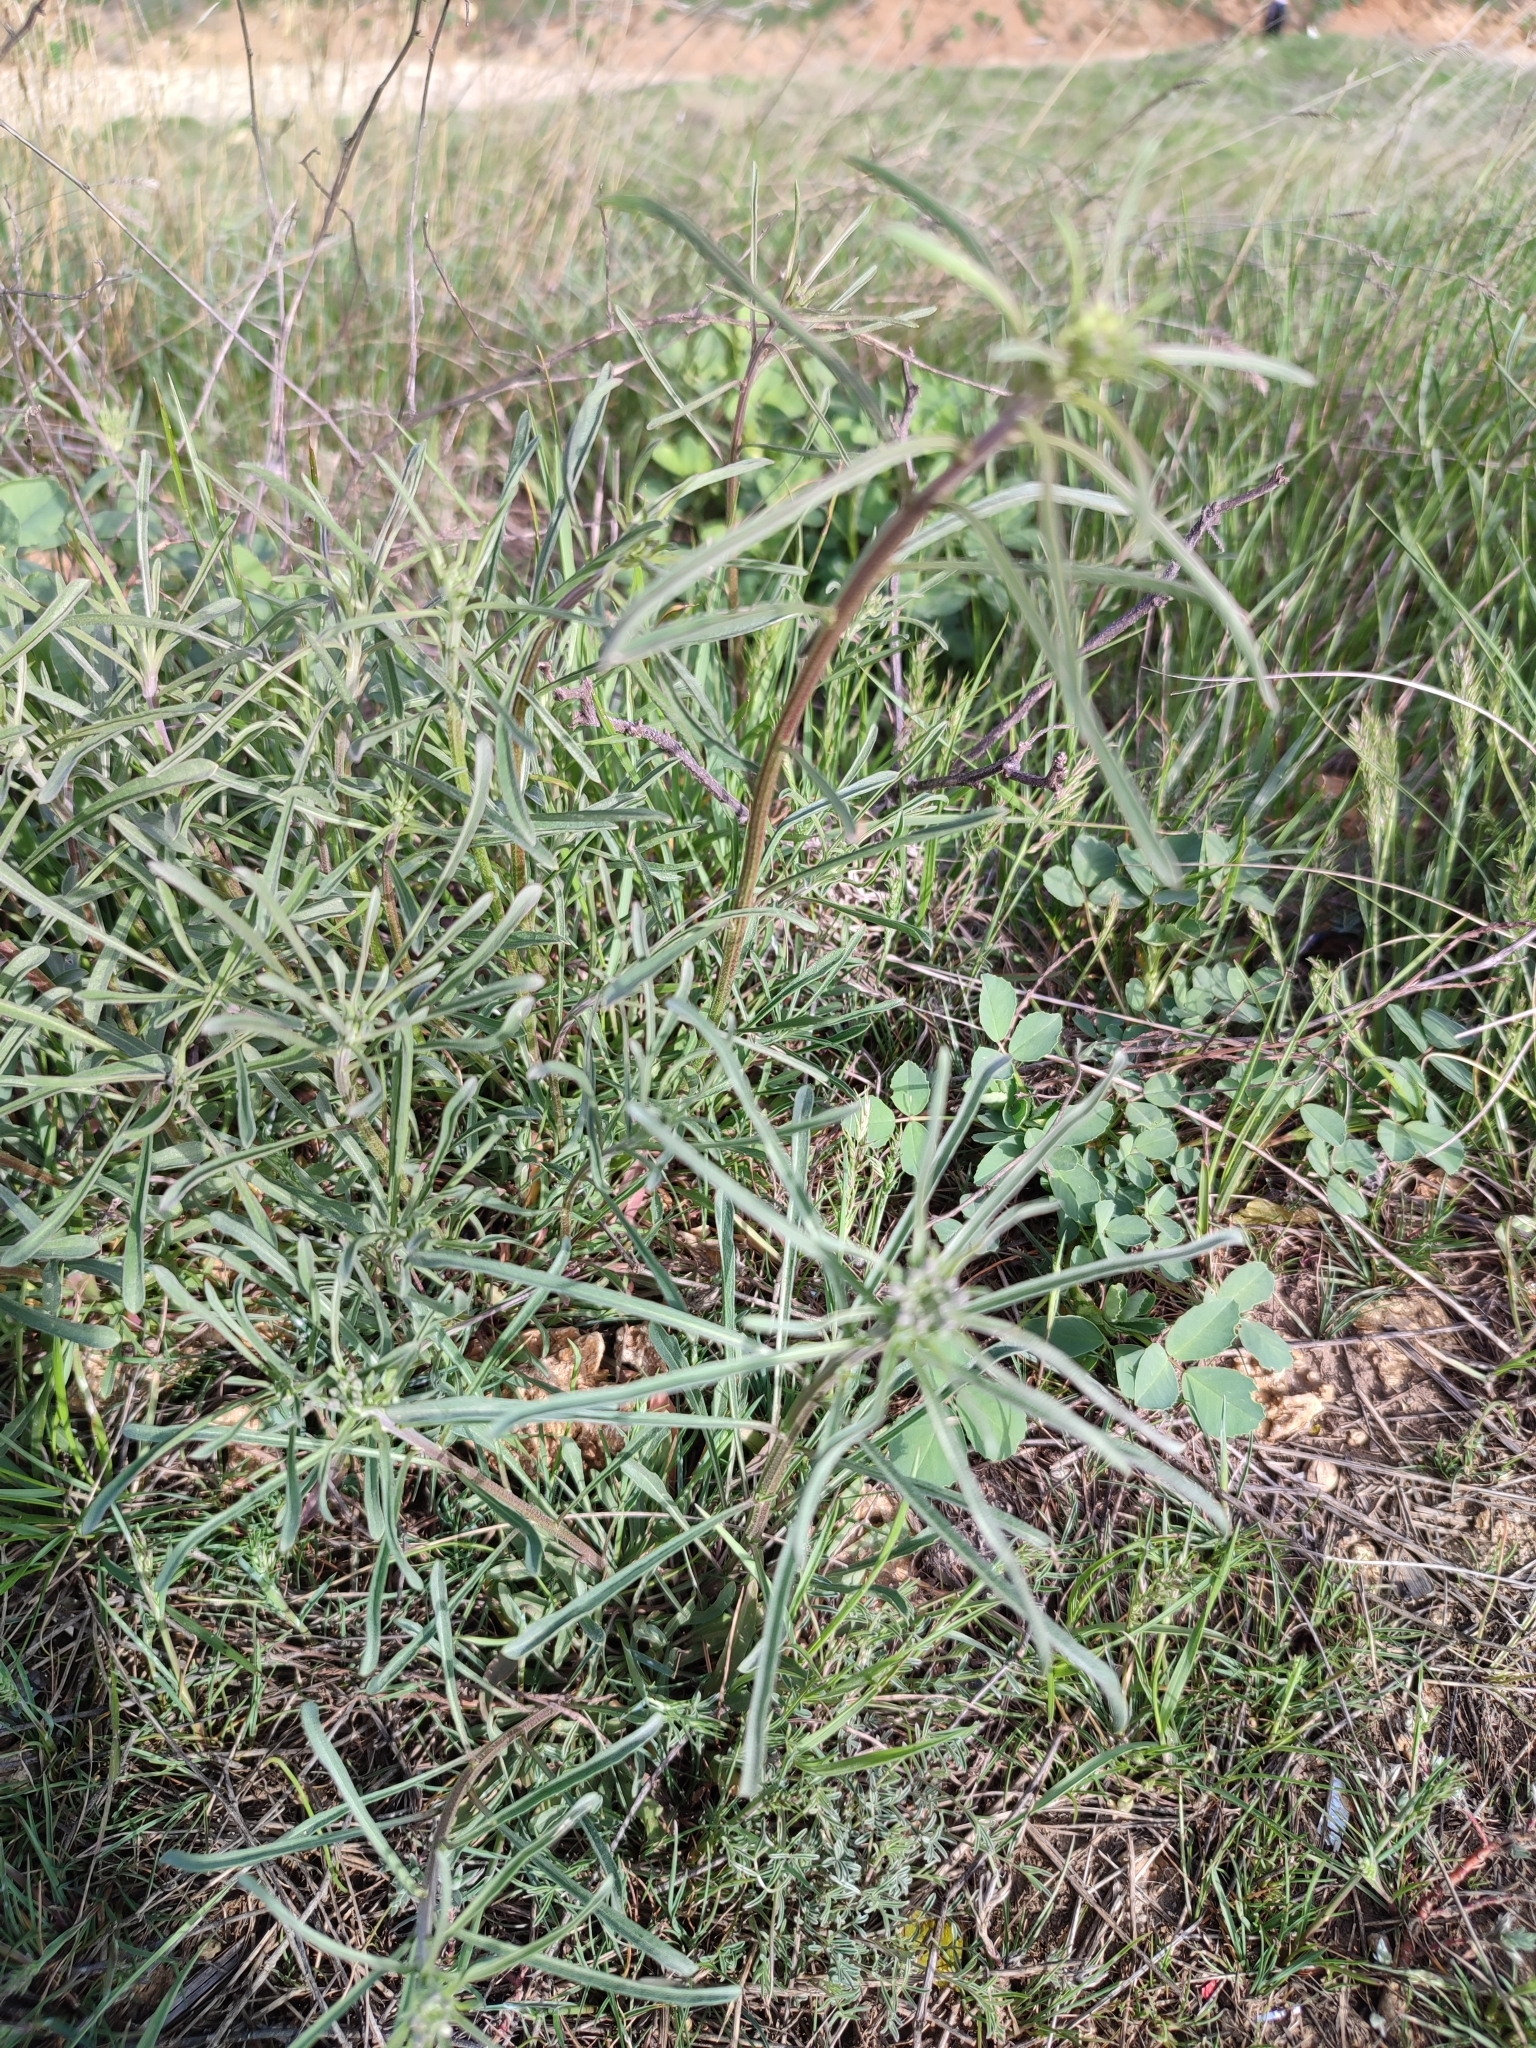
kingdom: Plantae
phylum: Tracheophyta
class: Magnoliopsida
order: Brassicales
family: Brassicaceae
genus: Erysimum
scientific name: Erysimum diffusum
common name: Diffuse wallflower
